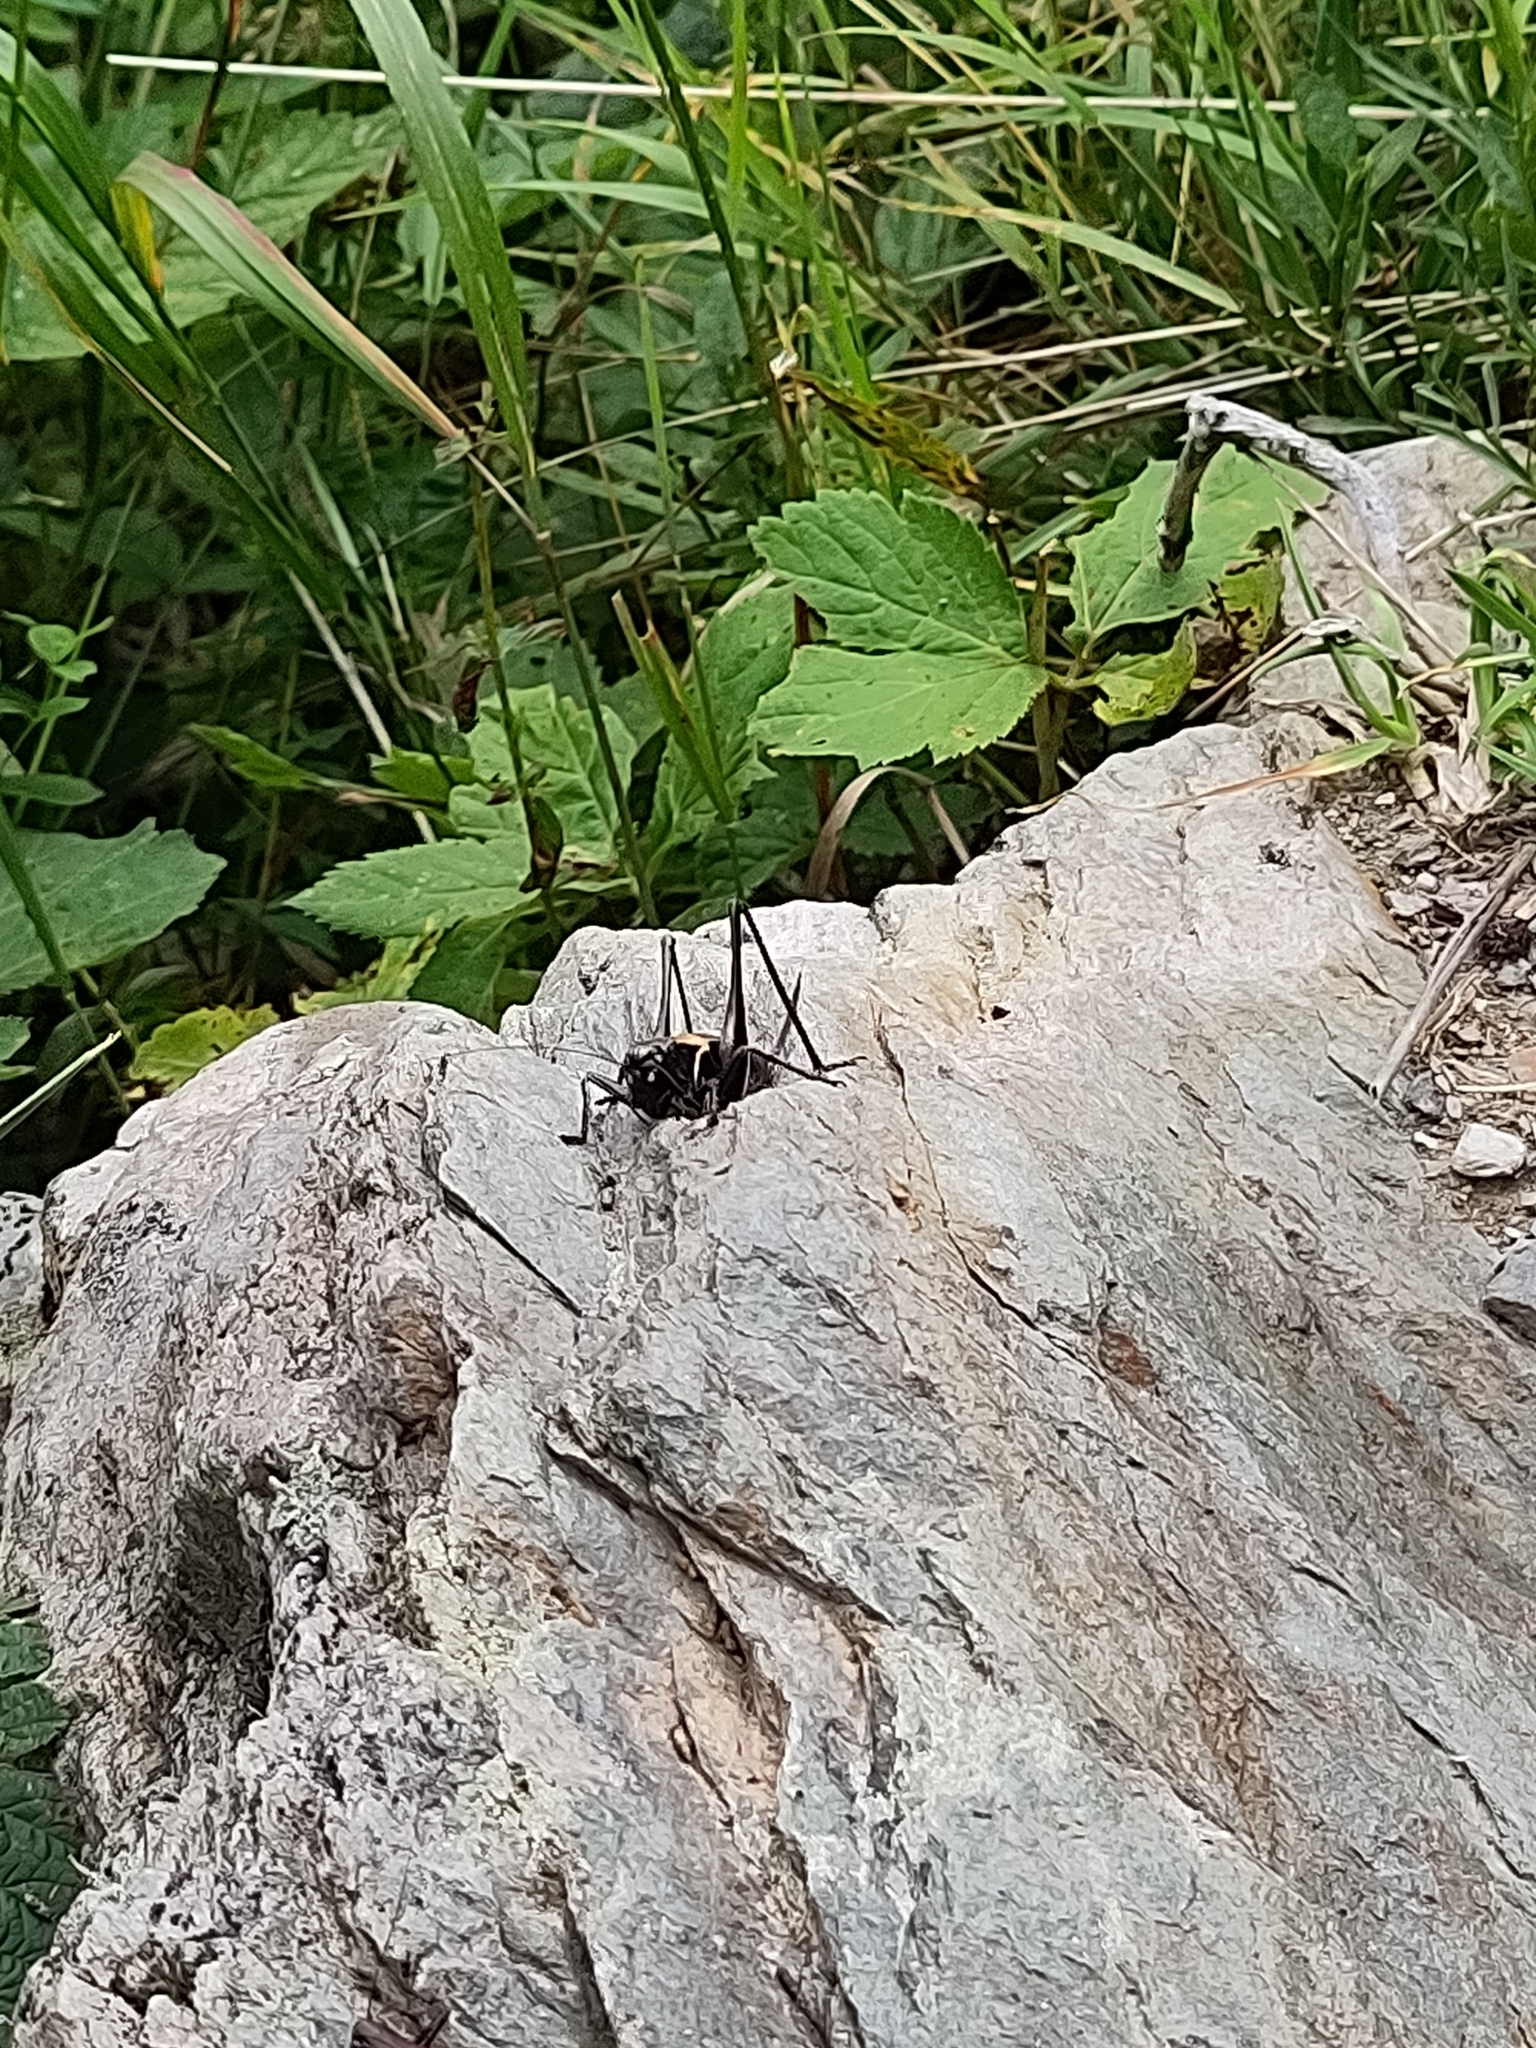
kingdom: Animalia
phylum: Arthropoda
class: Insecta
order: Orthoptera
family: Tettigoniidae
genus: Pholidoptera
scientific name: Pholidoptera aptera
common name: Alpine dark bush-cricket
